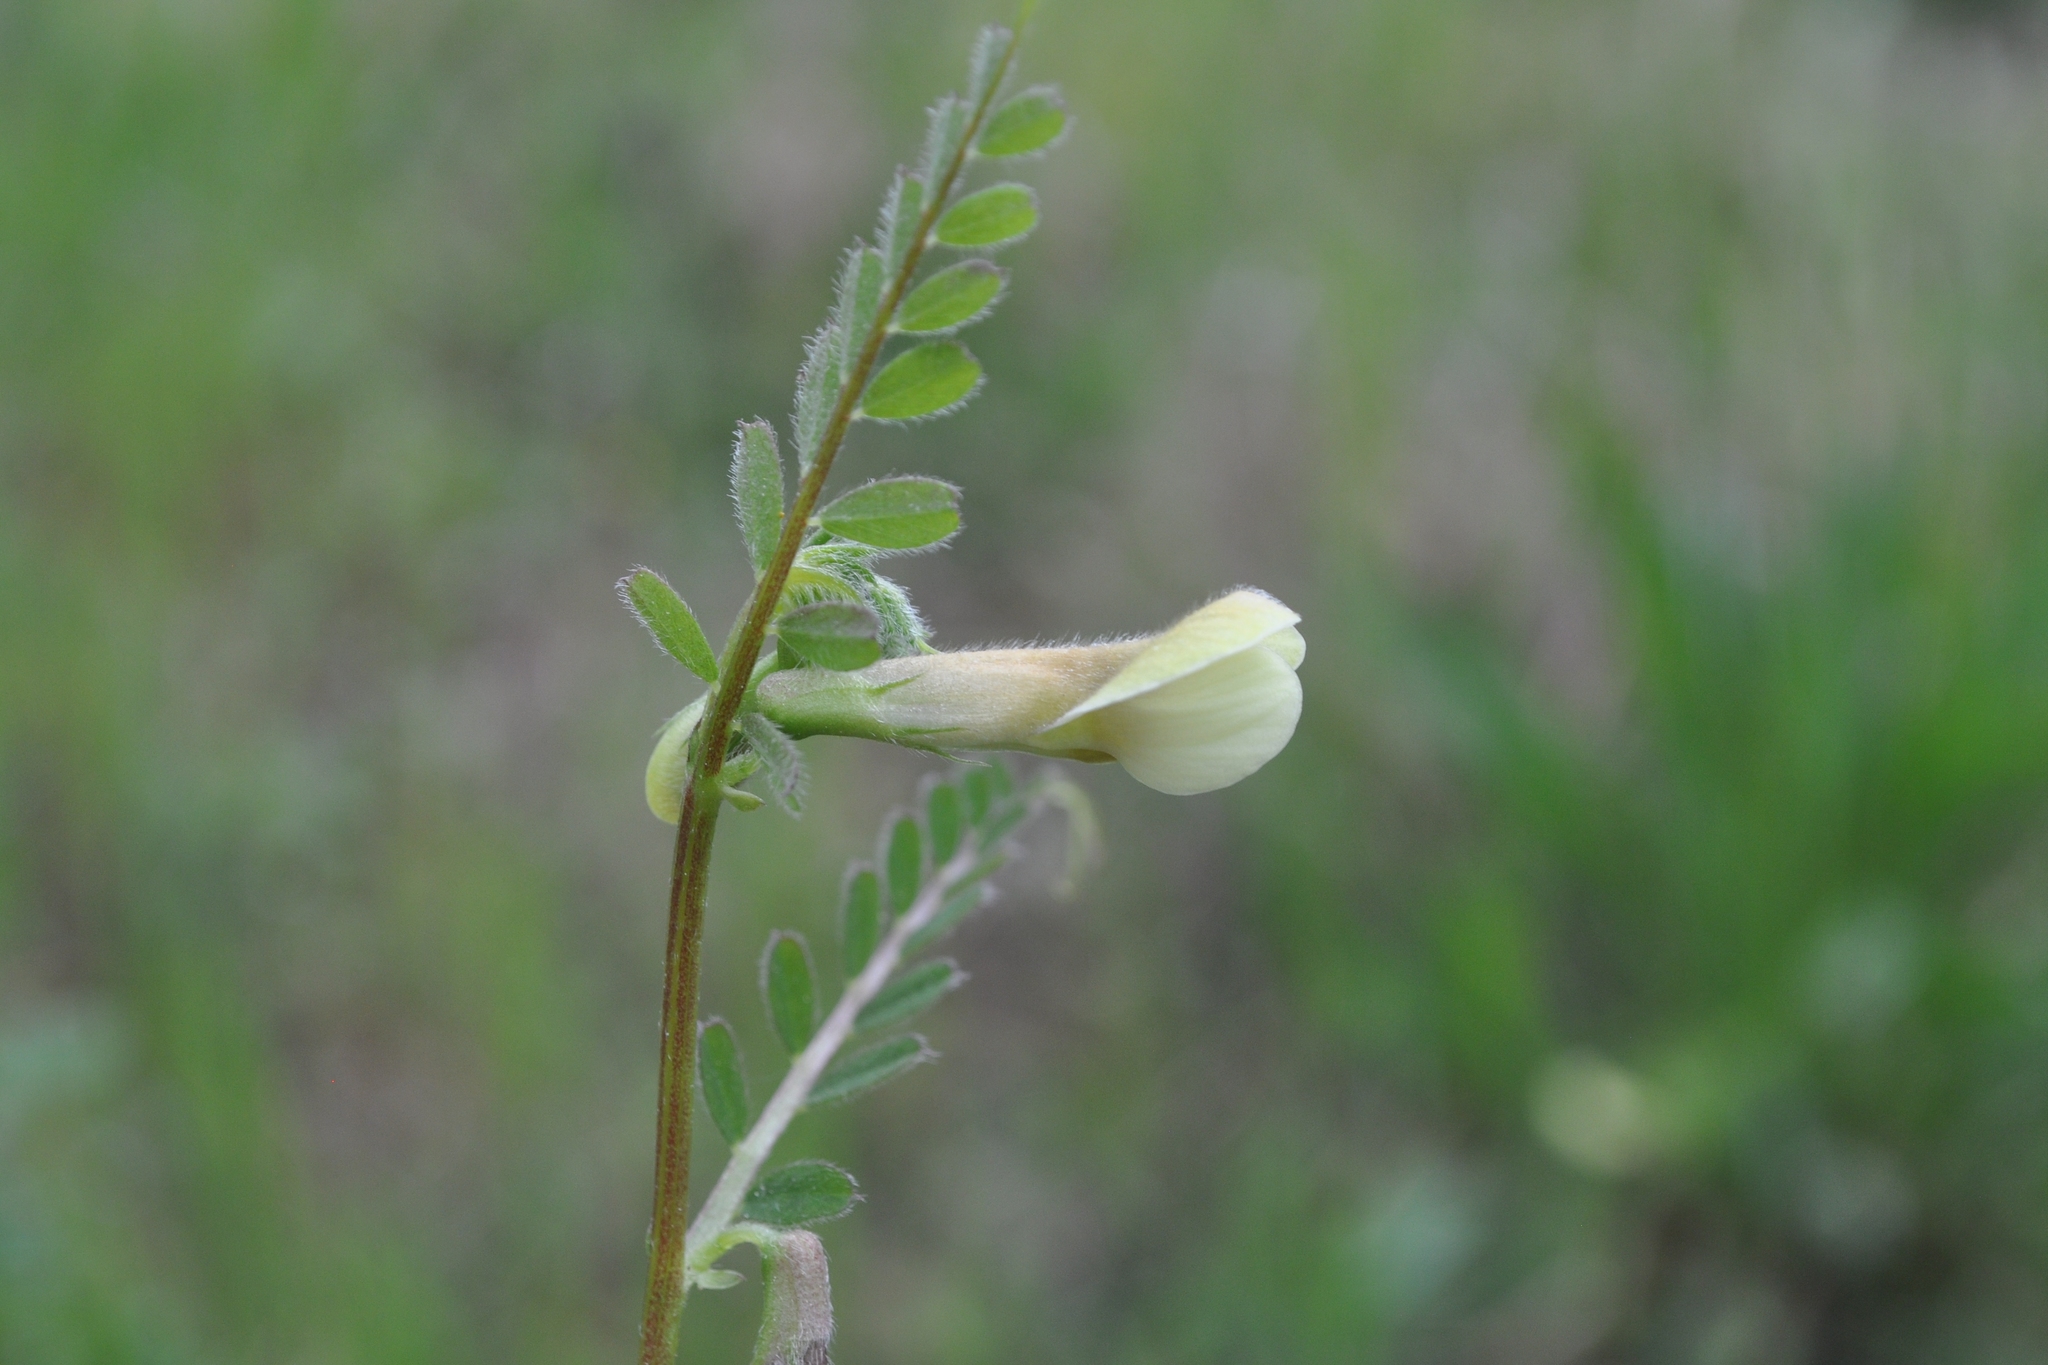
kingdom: Plantae
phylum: Tracheophyta
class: Magnoliopsida
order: Fabales
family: Fabaceae
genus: Vicia
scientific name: Vicia hybrida
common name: Hairy yellow vetch
